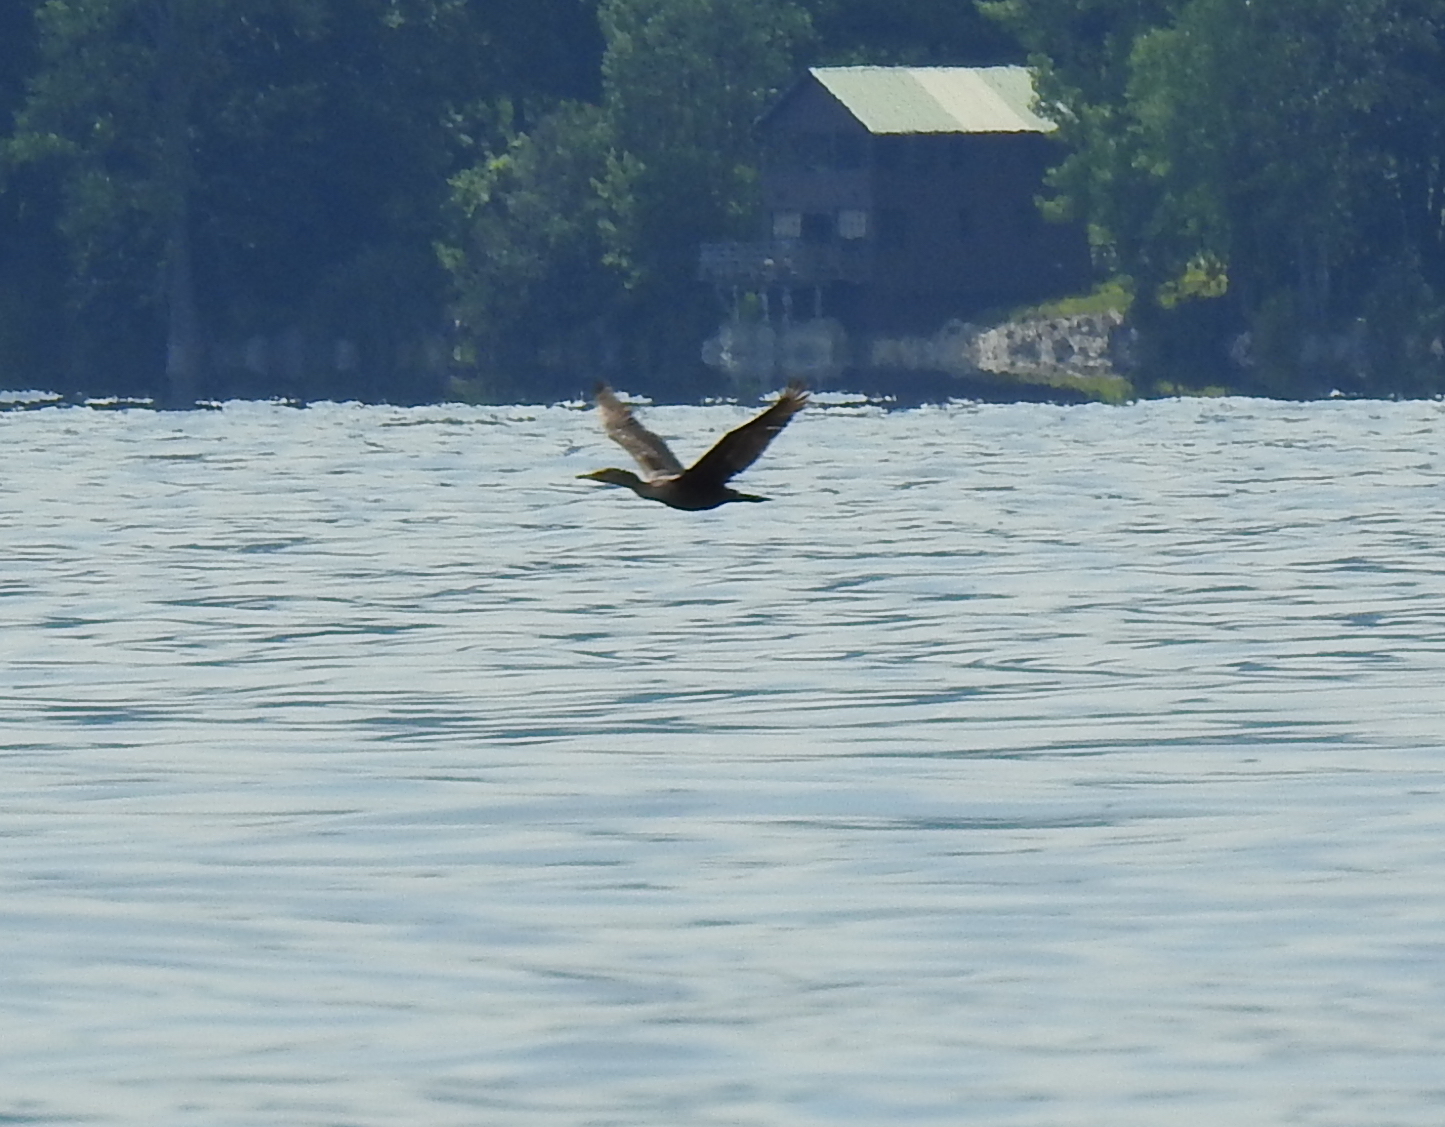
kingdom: Animalia
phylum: Chordata
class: Aves
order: Suliformes
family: Phalacrocoracidae
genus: Phalacrocorax
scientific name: Phalacrocorax auritus
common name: Double-crested cormorant
